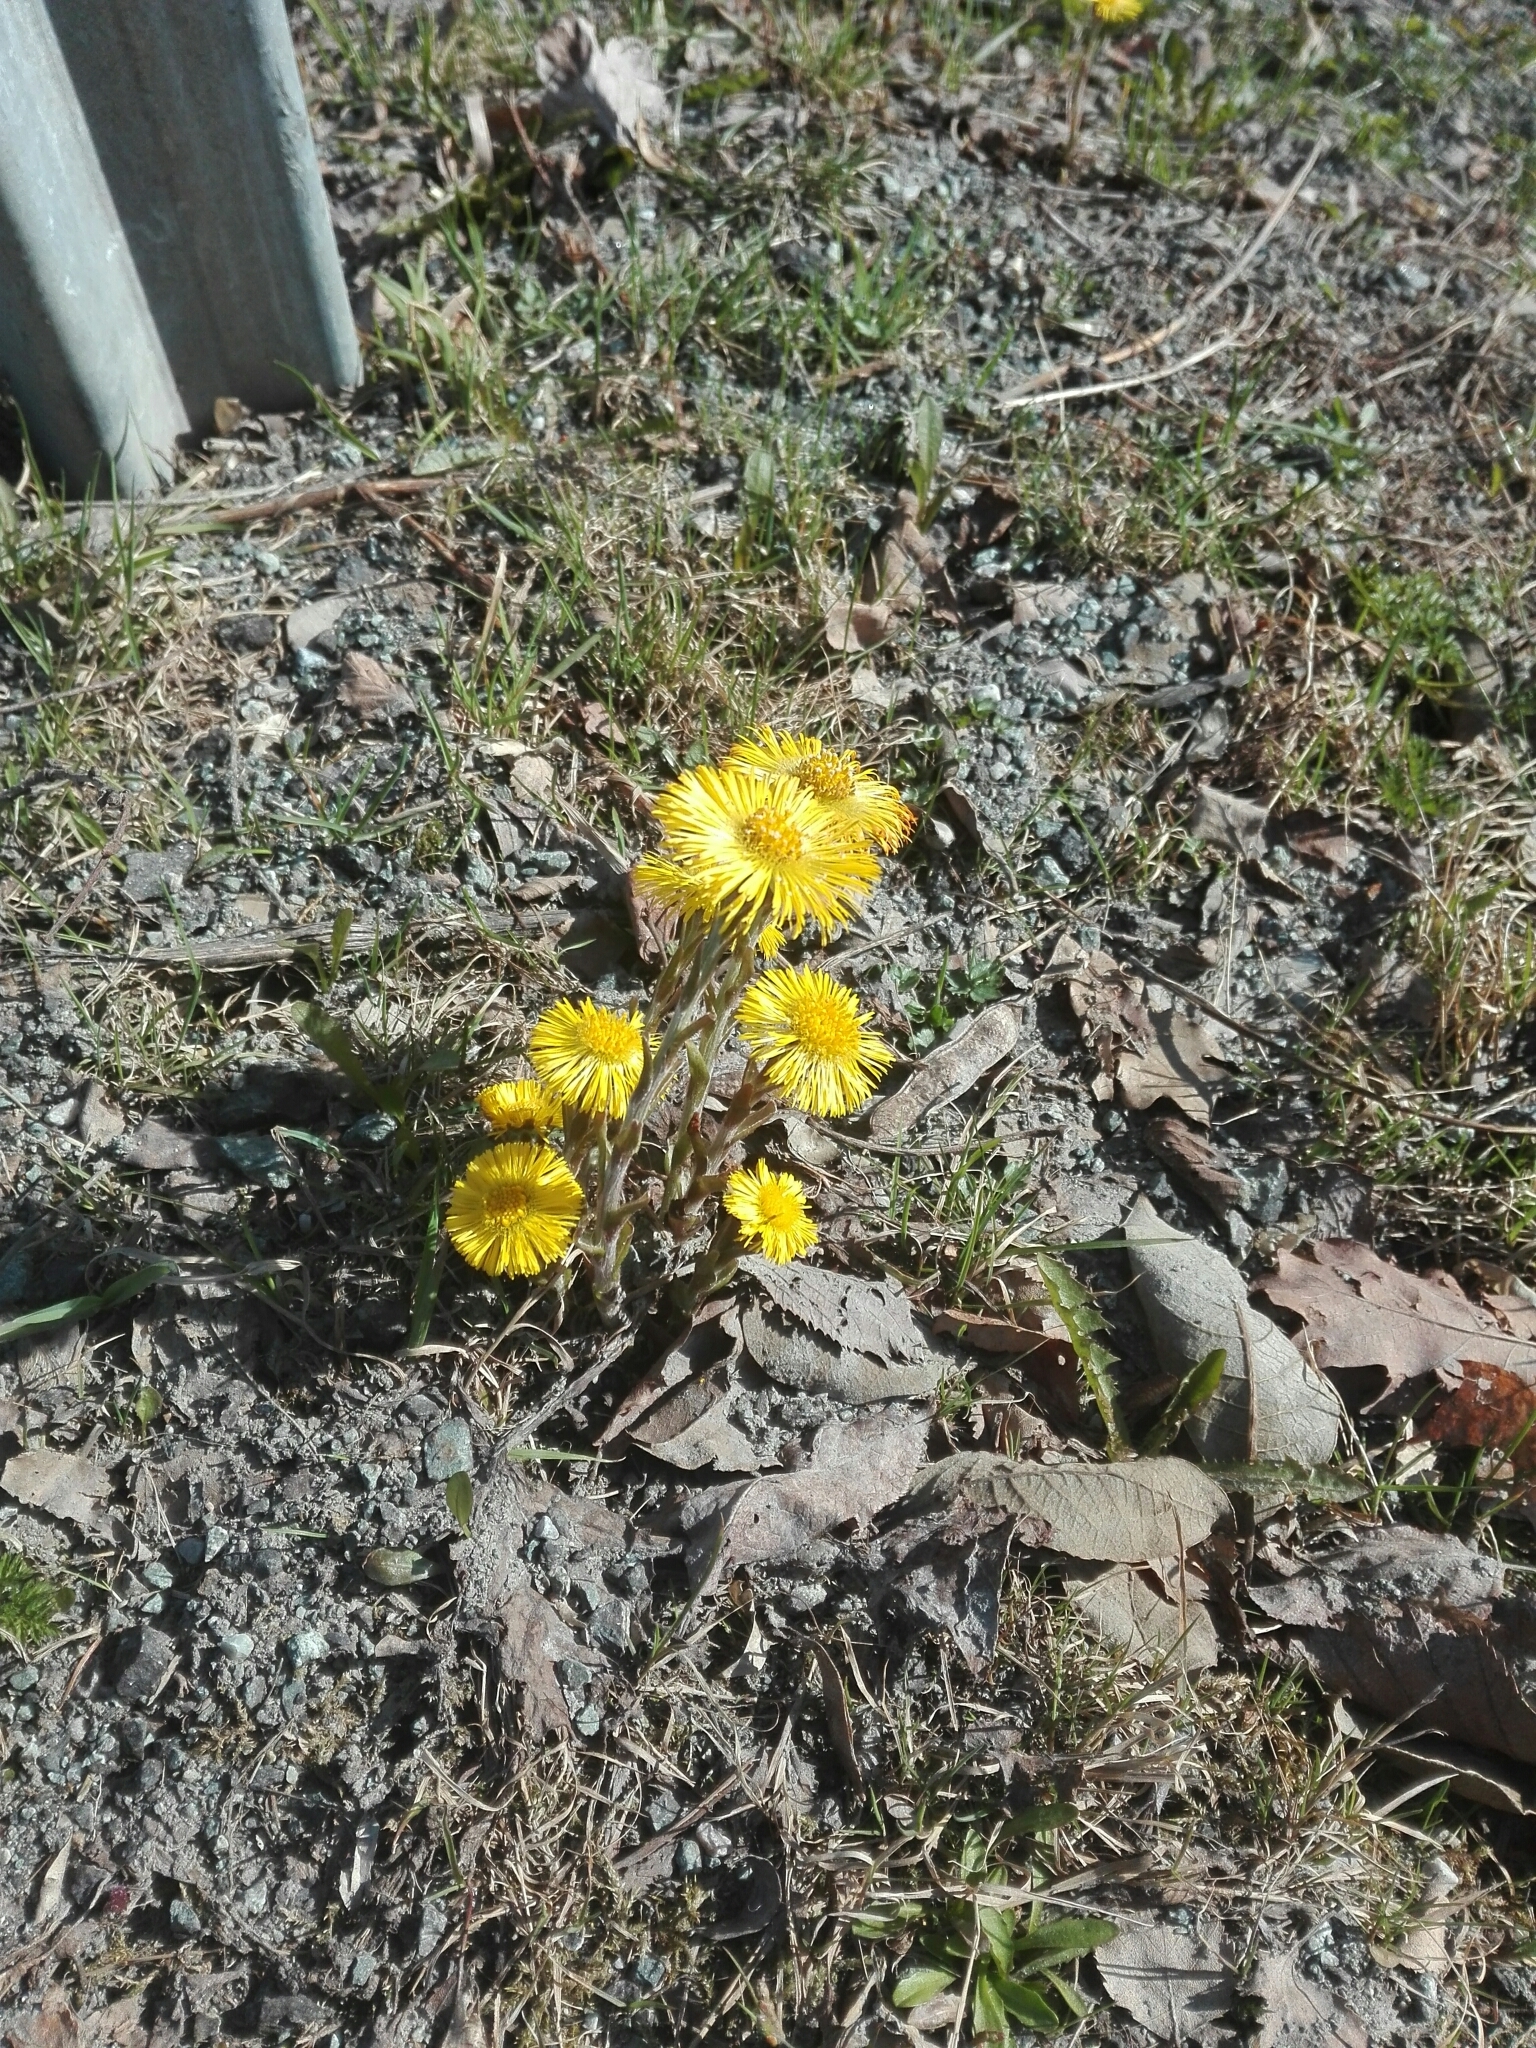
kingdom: Plantae
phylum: Tracheophyta
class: Magnoliopsida
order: Asterales
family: Asteraceae
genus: Tussilago
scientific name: Tussilago farfara
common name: Coltsfoot
